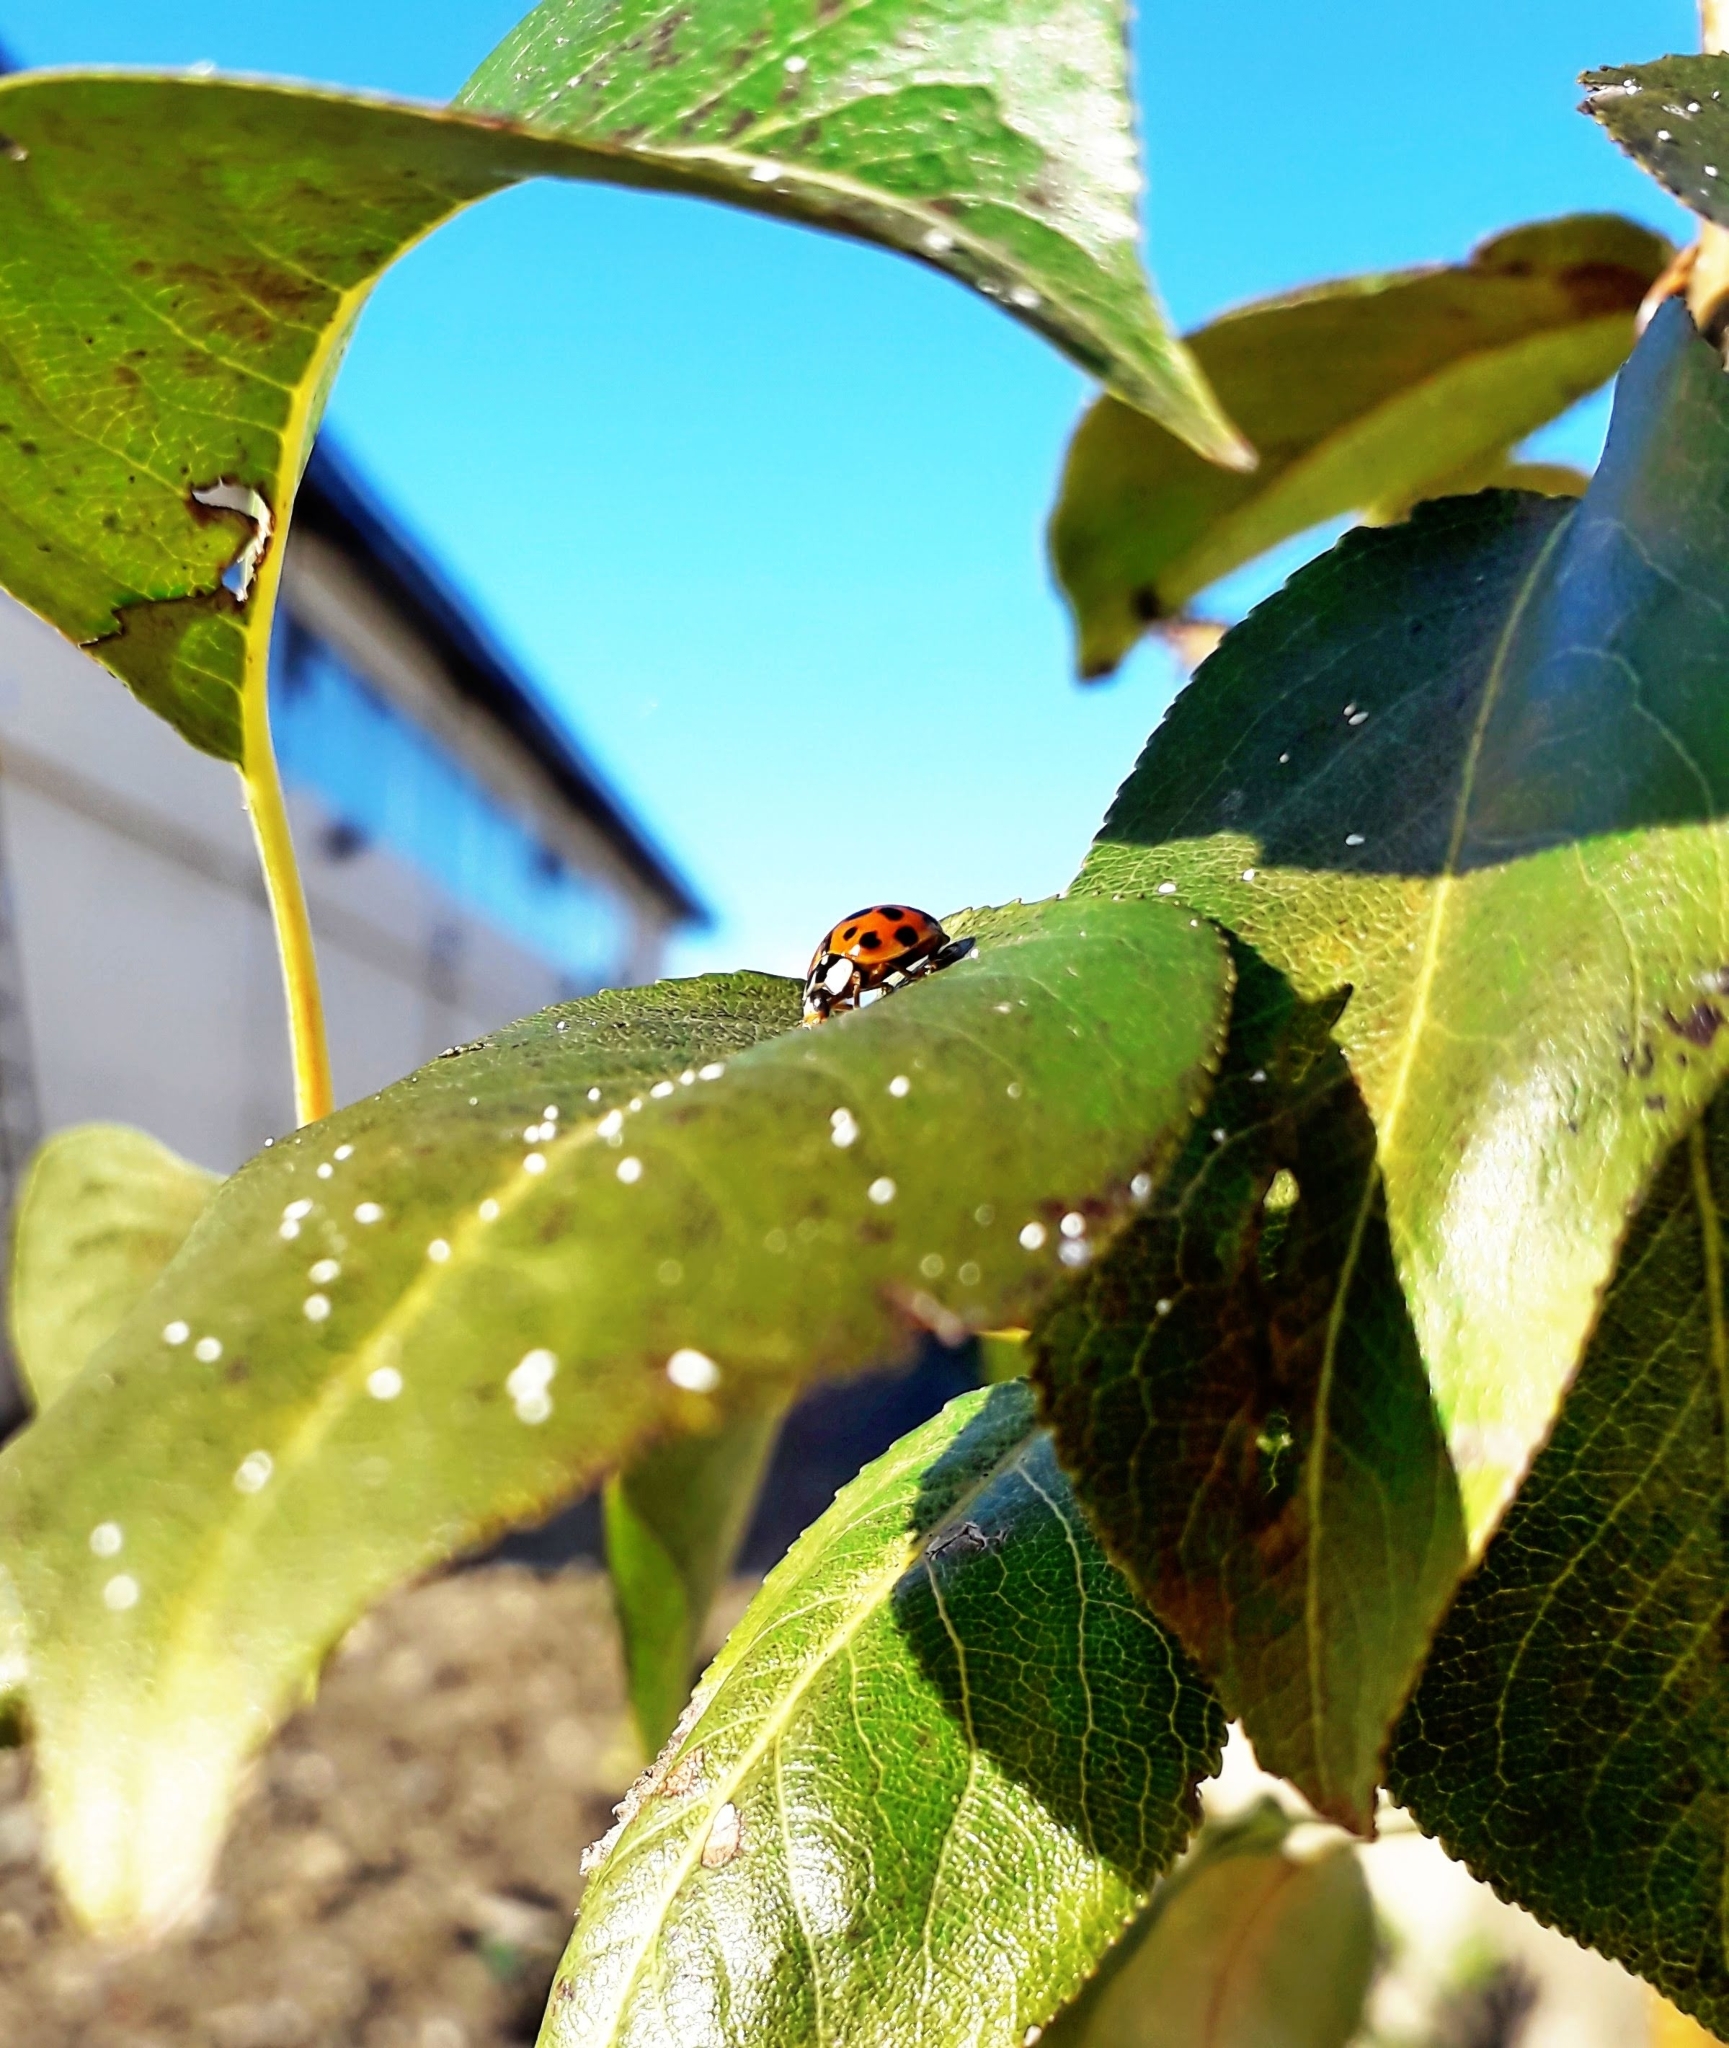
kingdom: Animalia
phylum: Arthropoda
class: Insecta
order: Coleoptera
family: Coccinellidae
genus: Harmonia
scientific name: Harmonia axyridis
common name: Harlequin ladybird
